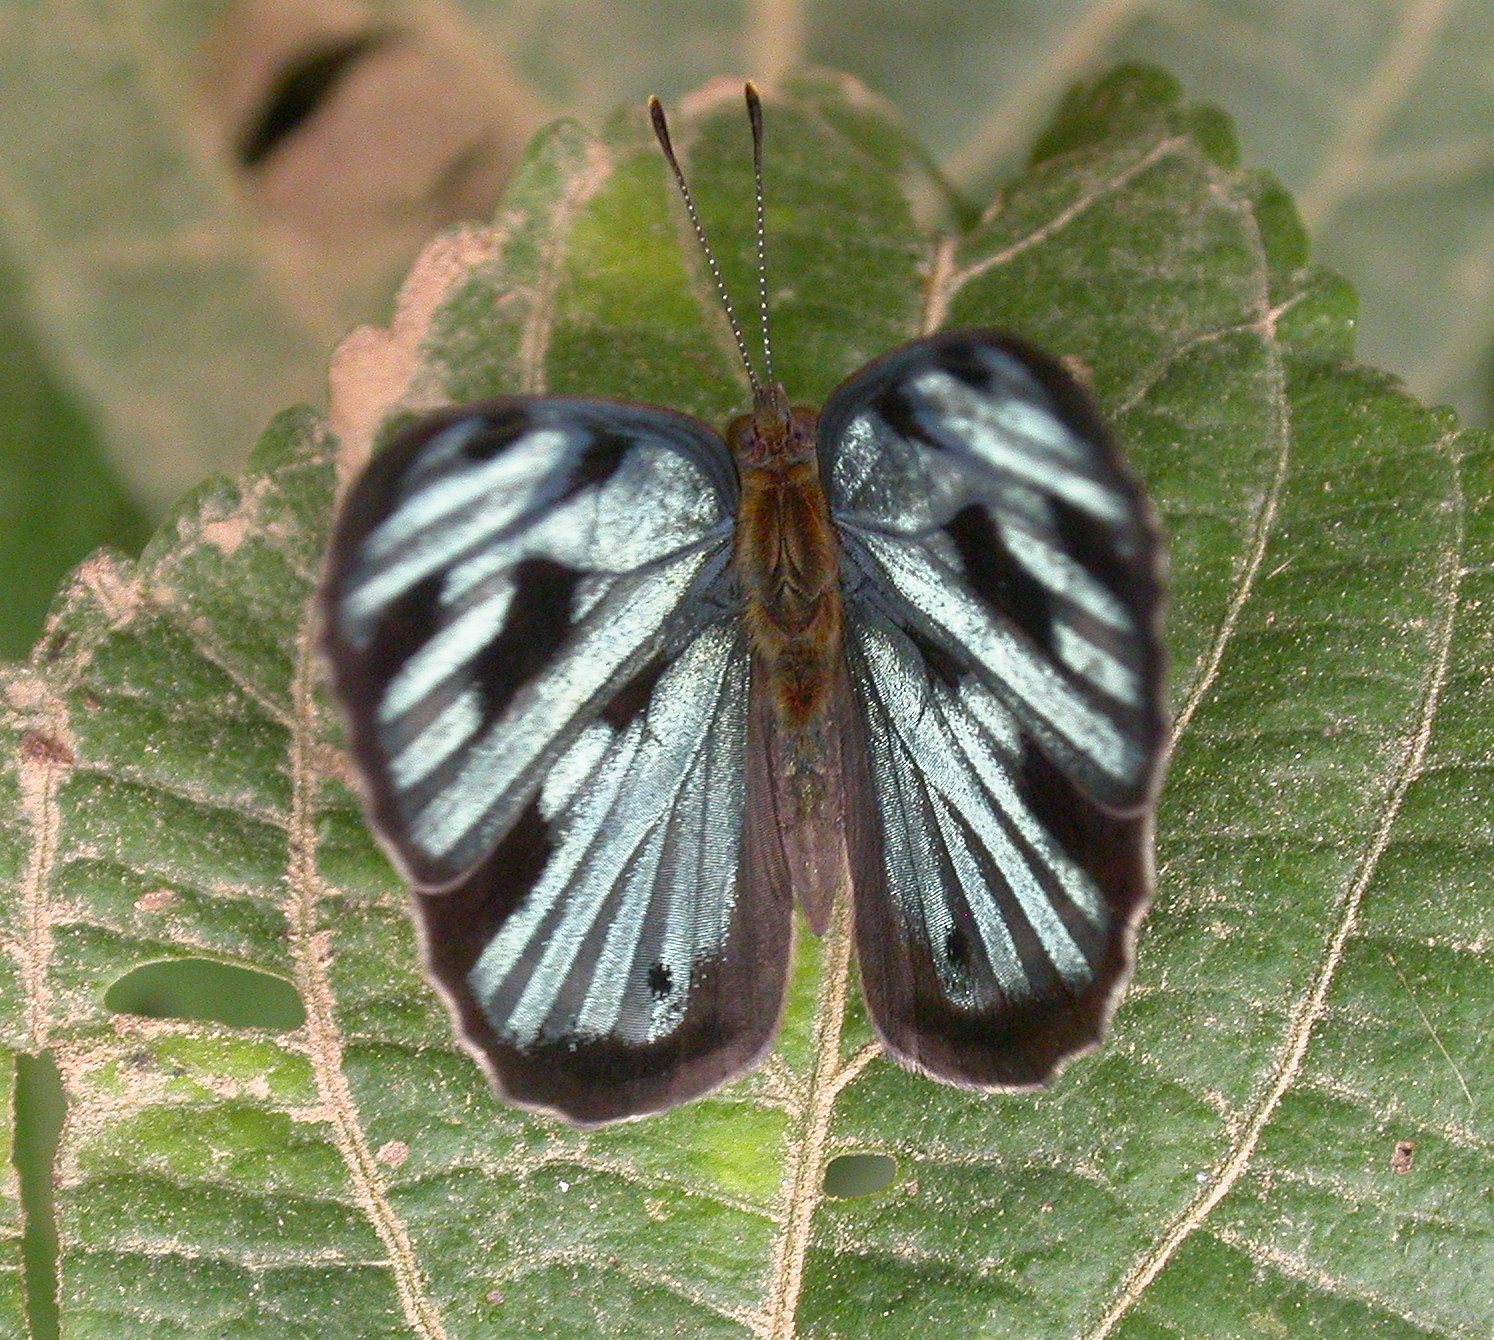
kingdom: Animalia
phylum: Arthropoda
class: Insecta
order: Lepidoptera
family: Nymphalidae
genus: Dynamine
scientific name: Dynamine mylitta
